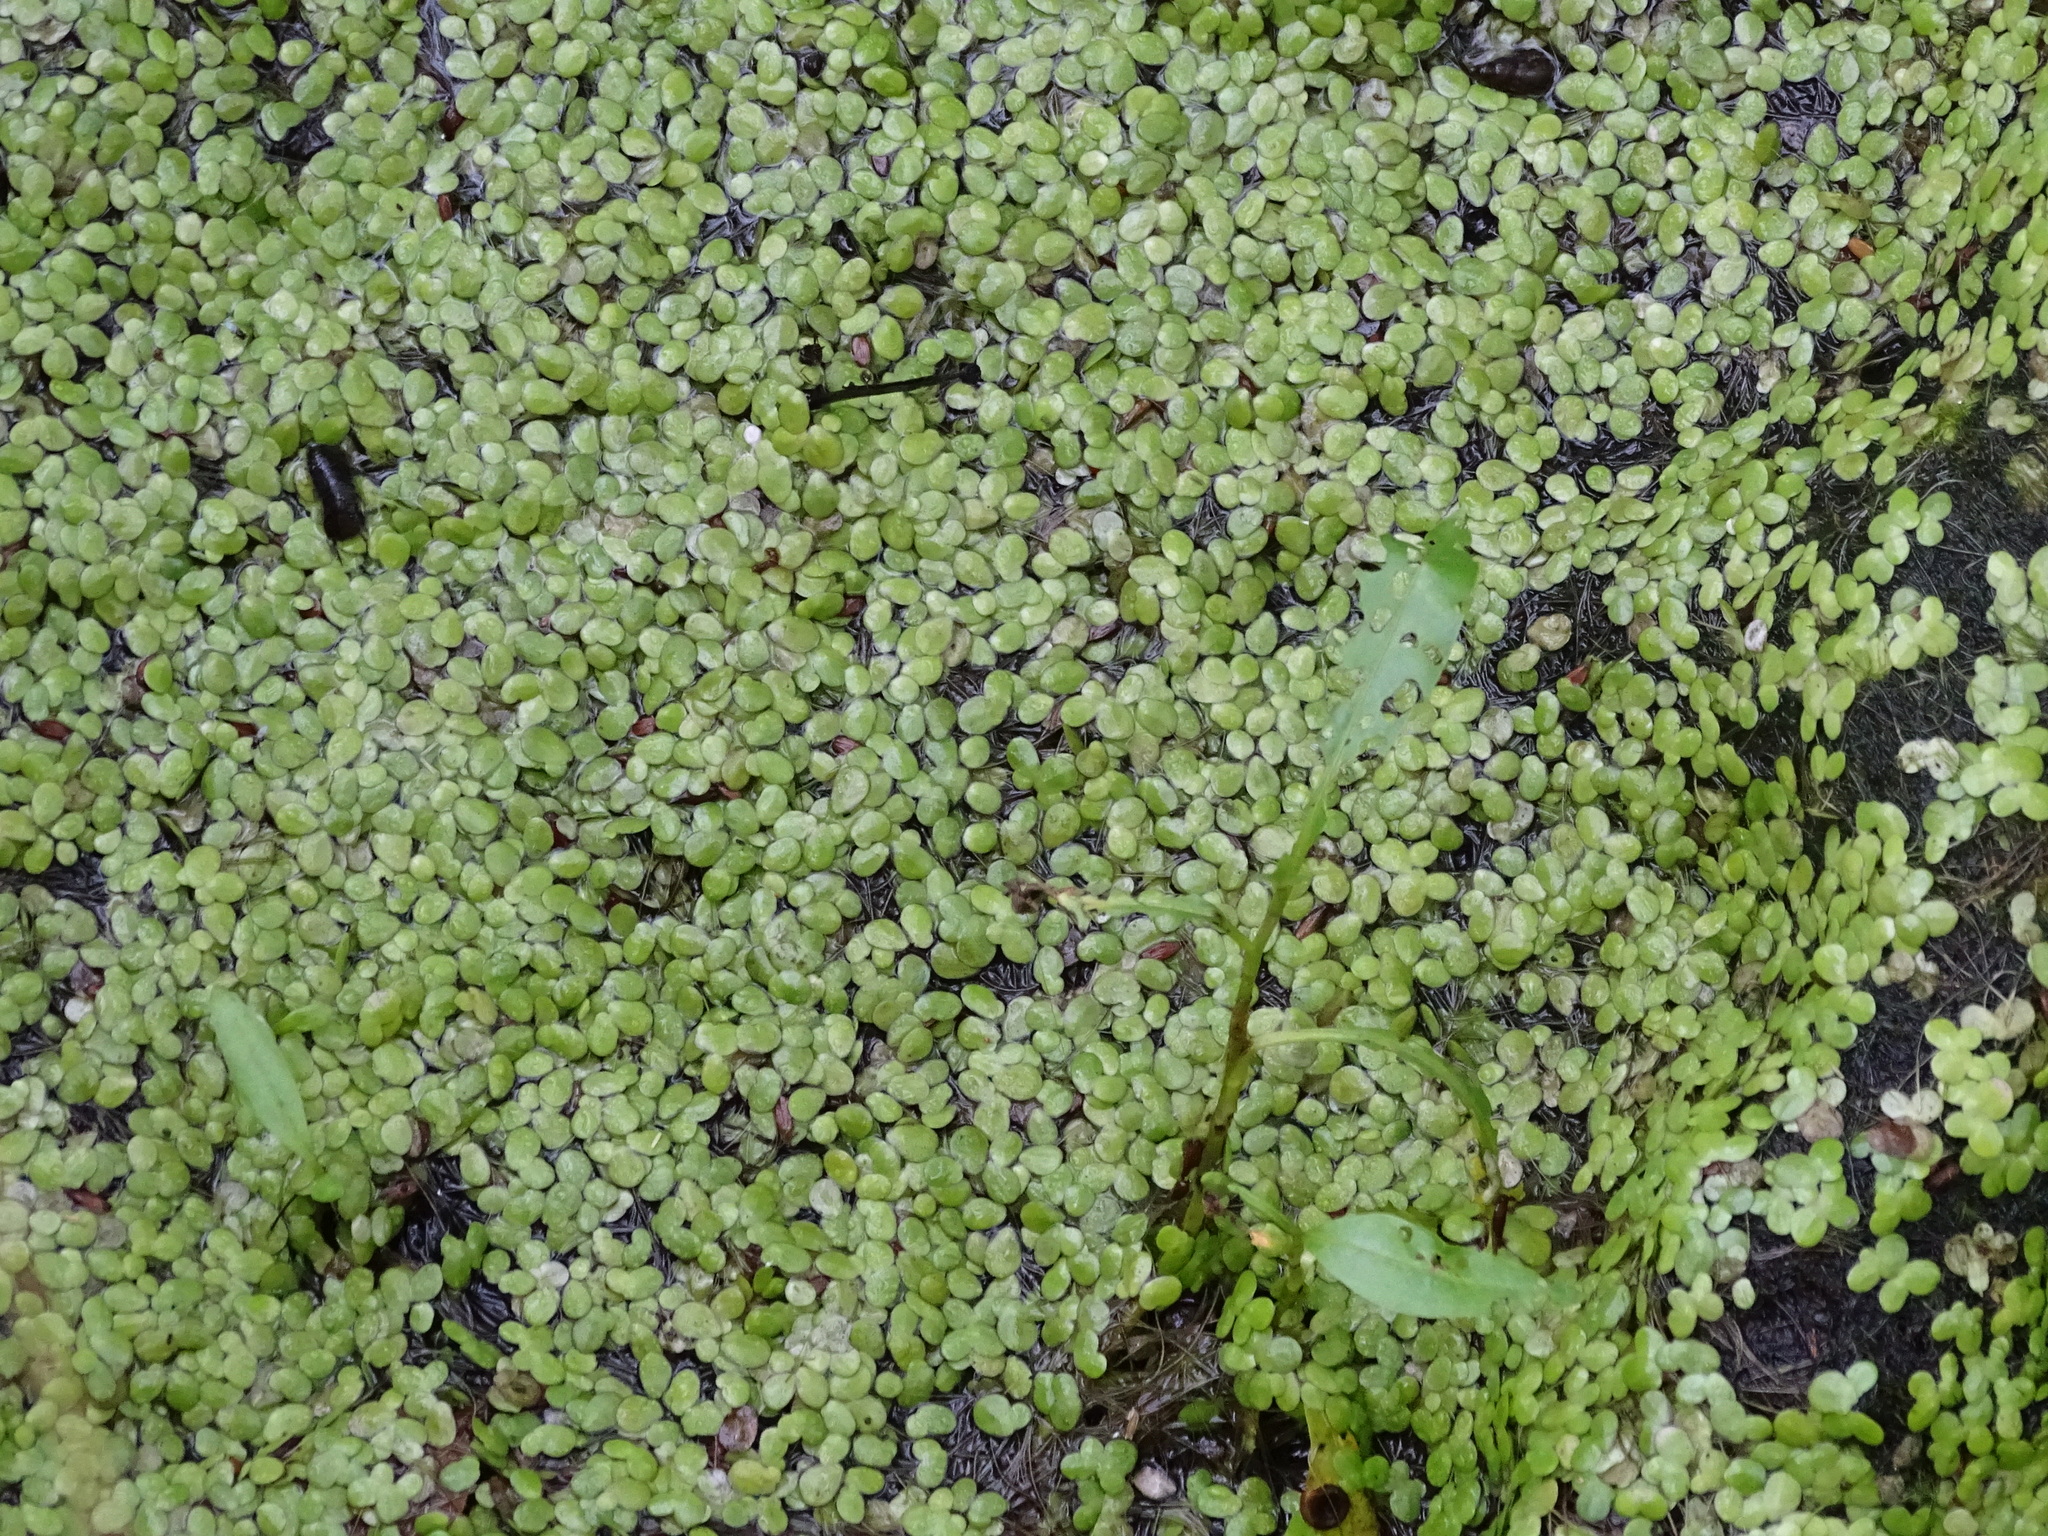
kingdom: Plantae
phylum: Tracheophyta
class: Liliopsida
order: Alismatales
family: Araceae
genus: Lemna
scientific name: Lemna minor
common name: Common duckweed
